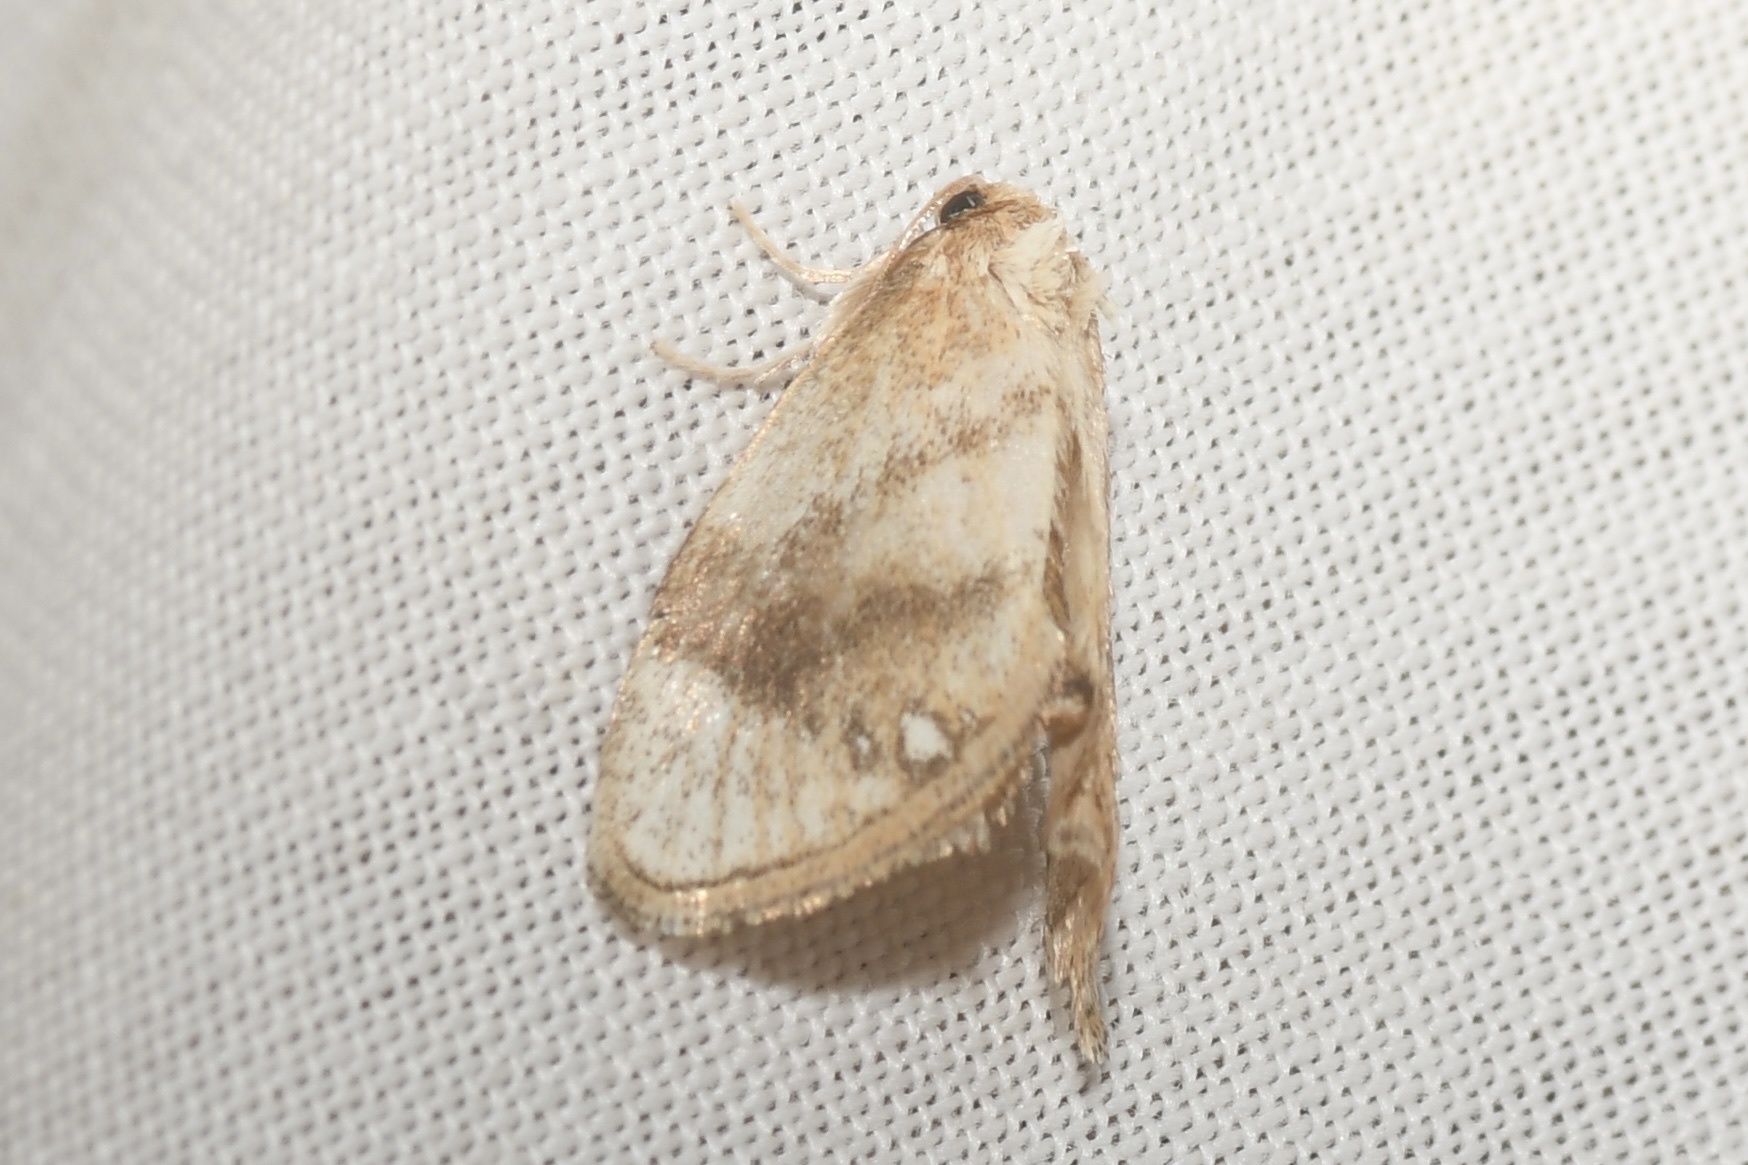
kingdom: Animalia
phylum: Arthropoda
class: Insecta
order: Lepidoptera
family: Limacodidae
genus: Packardia
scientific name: Packardia geminata
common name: Jeweled tailed slug moth
